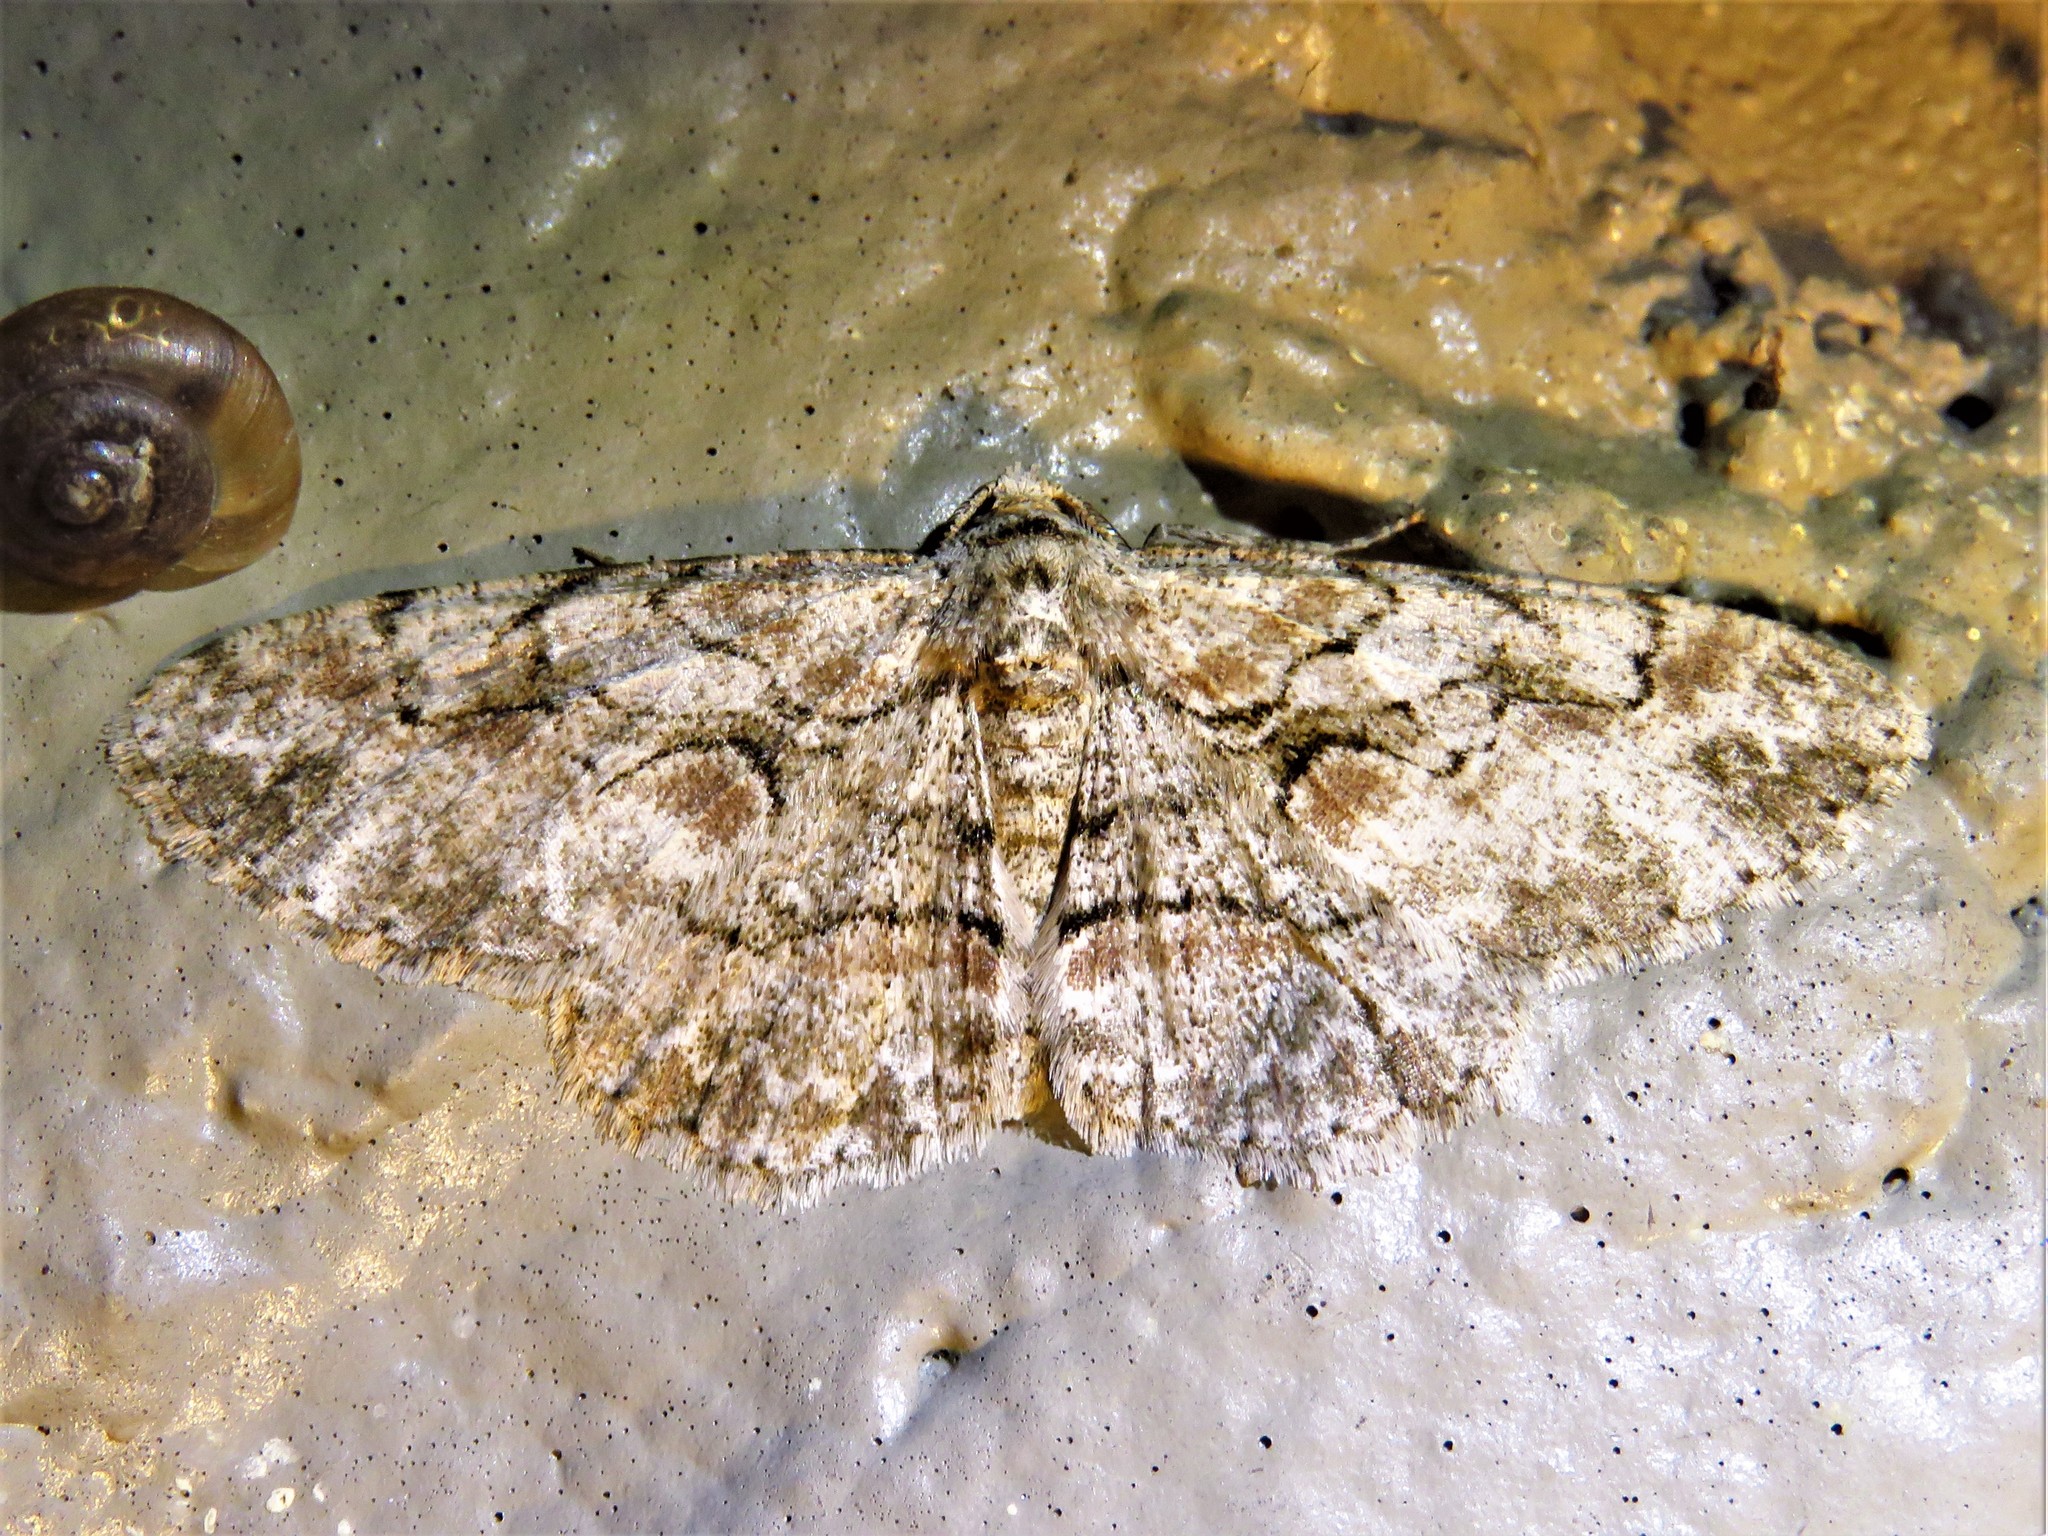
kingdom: Animalia
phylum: Arthropoda
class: Insecta
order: Lepidoptera
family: Geometridae
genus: Iridopsis
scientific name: Iridopsis defectaria
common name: Brown-shaded gray
